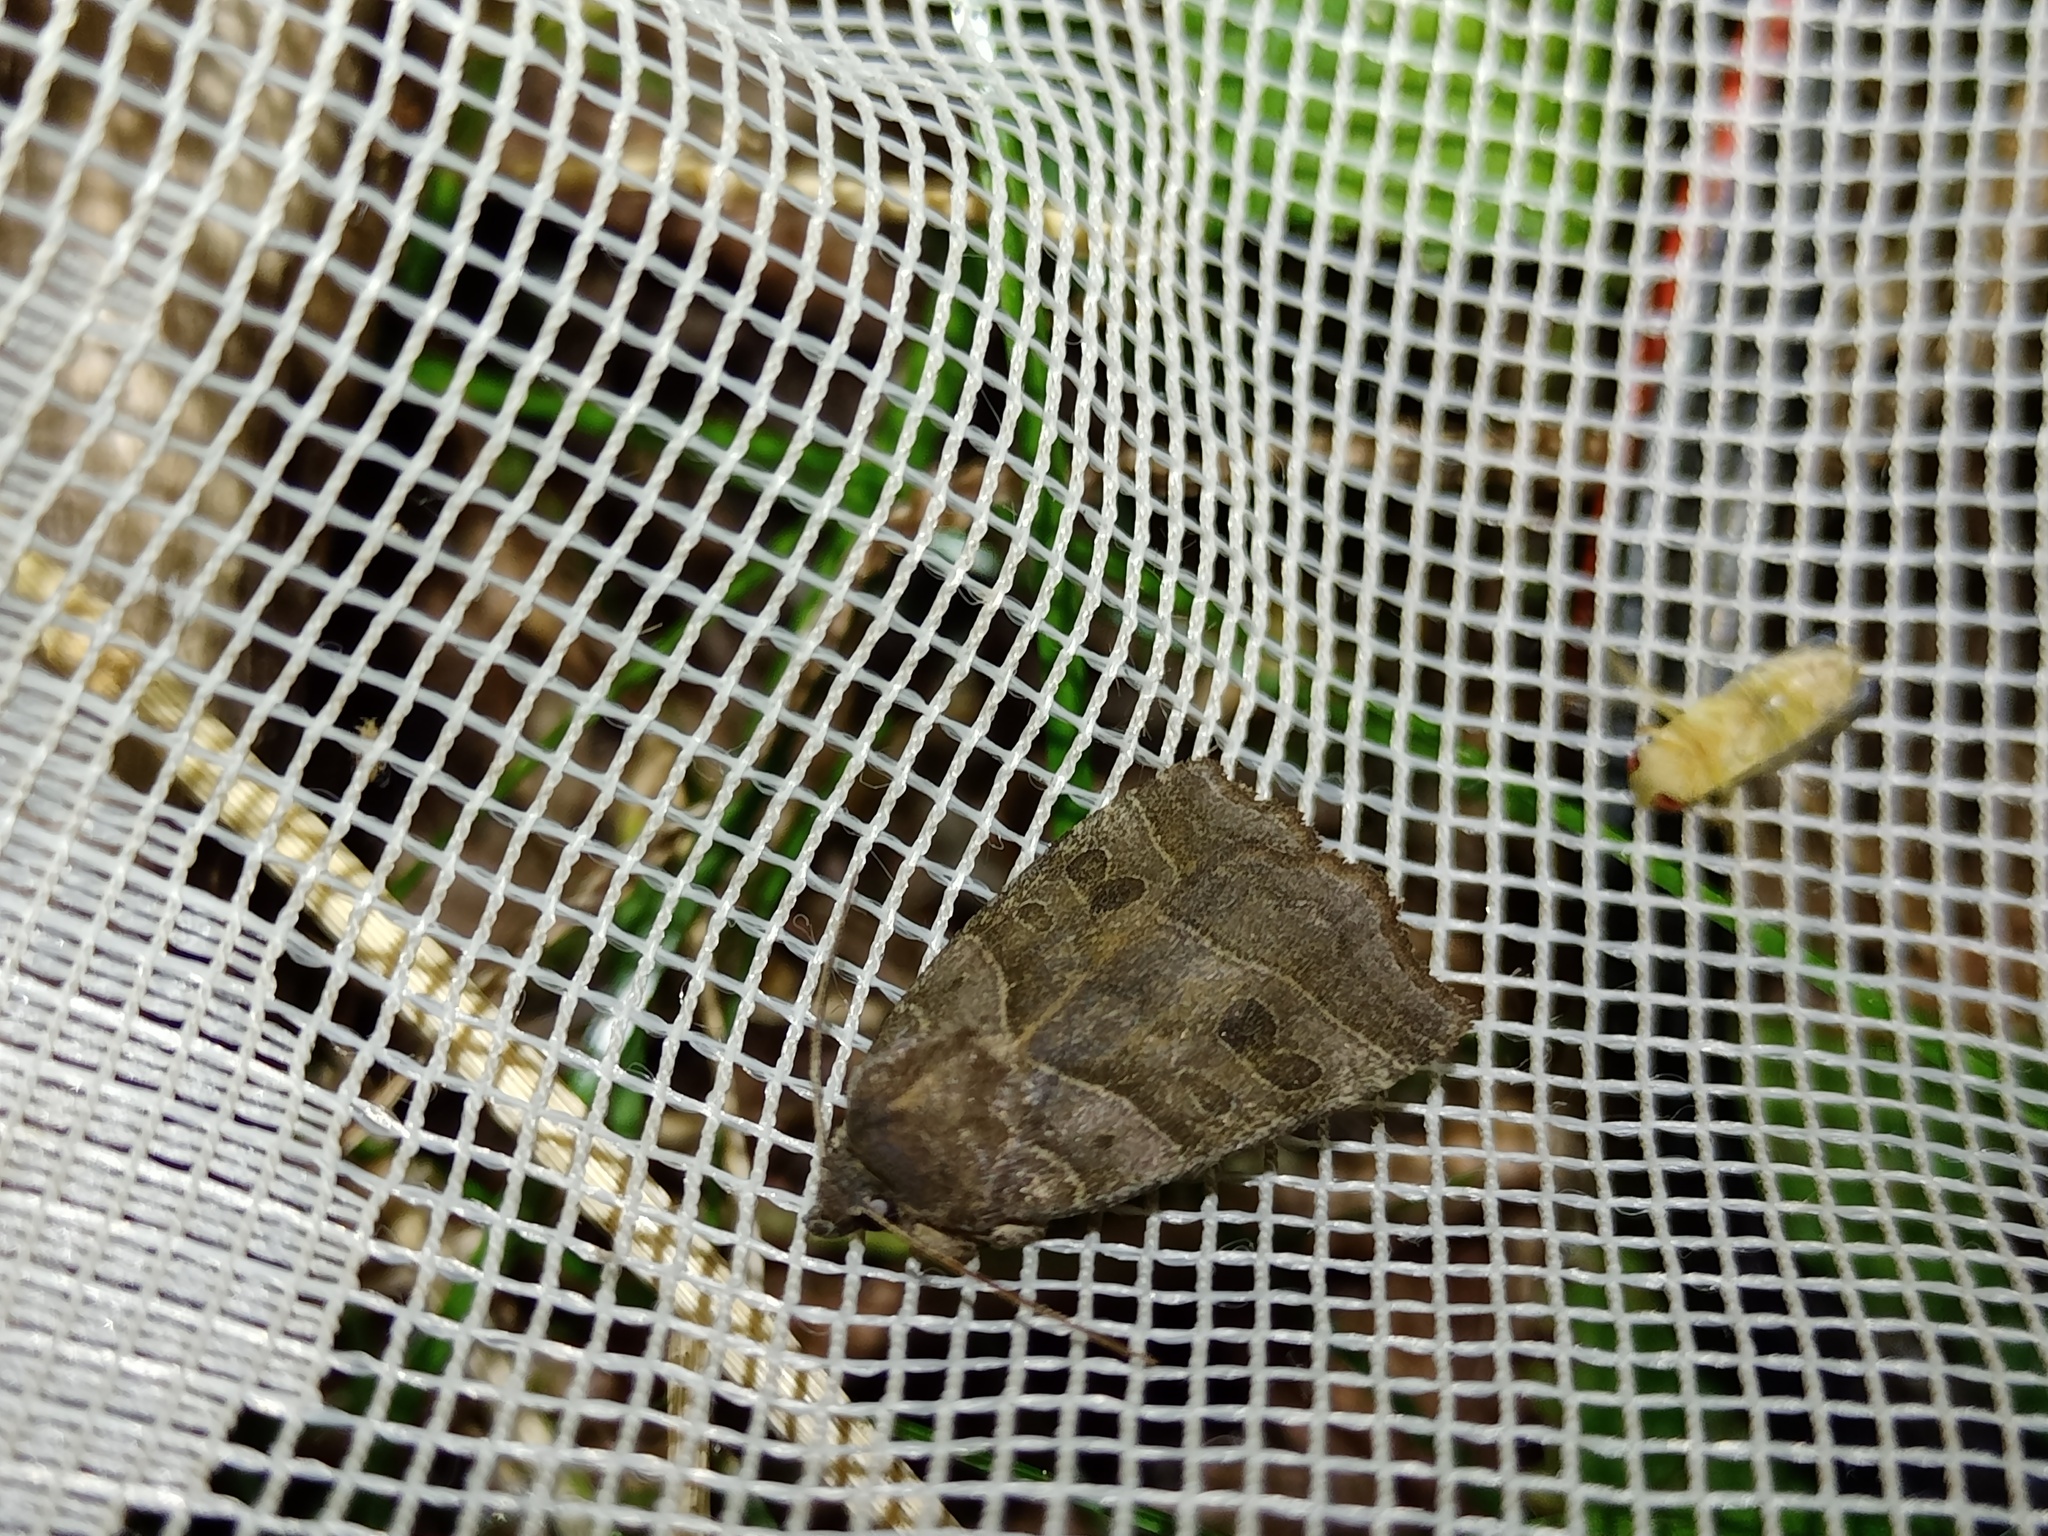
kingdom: Animalia
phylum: Arthropoda
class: Insecta
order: Lepidoptera
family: Noctuidae
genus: Ipimorpha
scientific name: Ipimorpha retusa
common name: Double kidney
